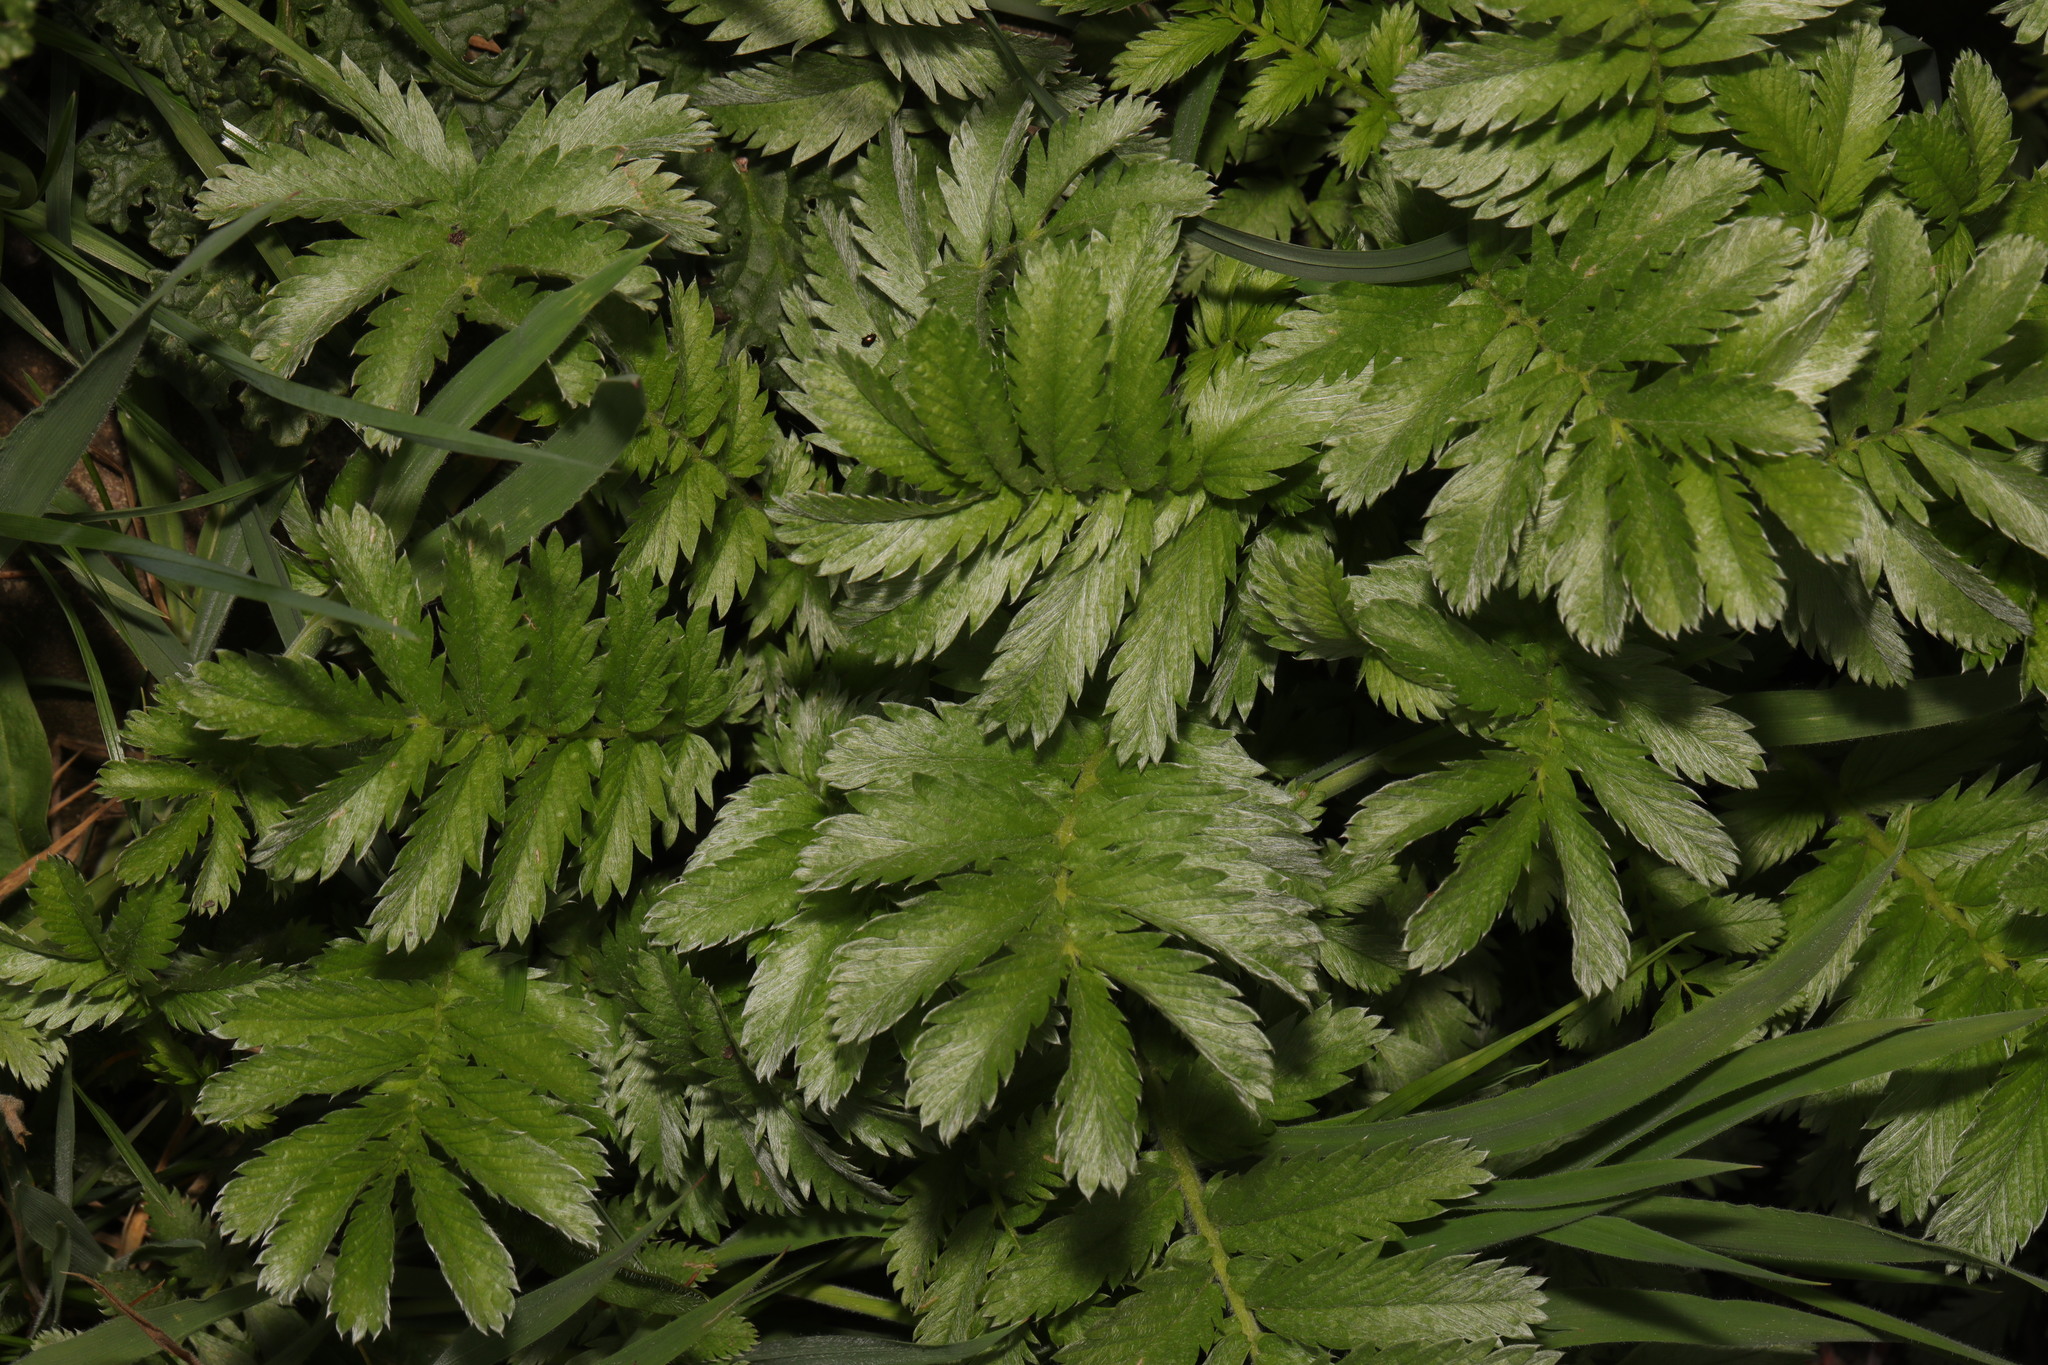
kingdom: Plantae
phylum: Tracheophyta
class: Magnoliopsida
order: Rosales
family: Rosaceae
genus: Argentina
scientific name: Argentina anserina
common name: Common silverweed
